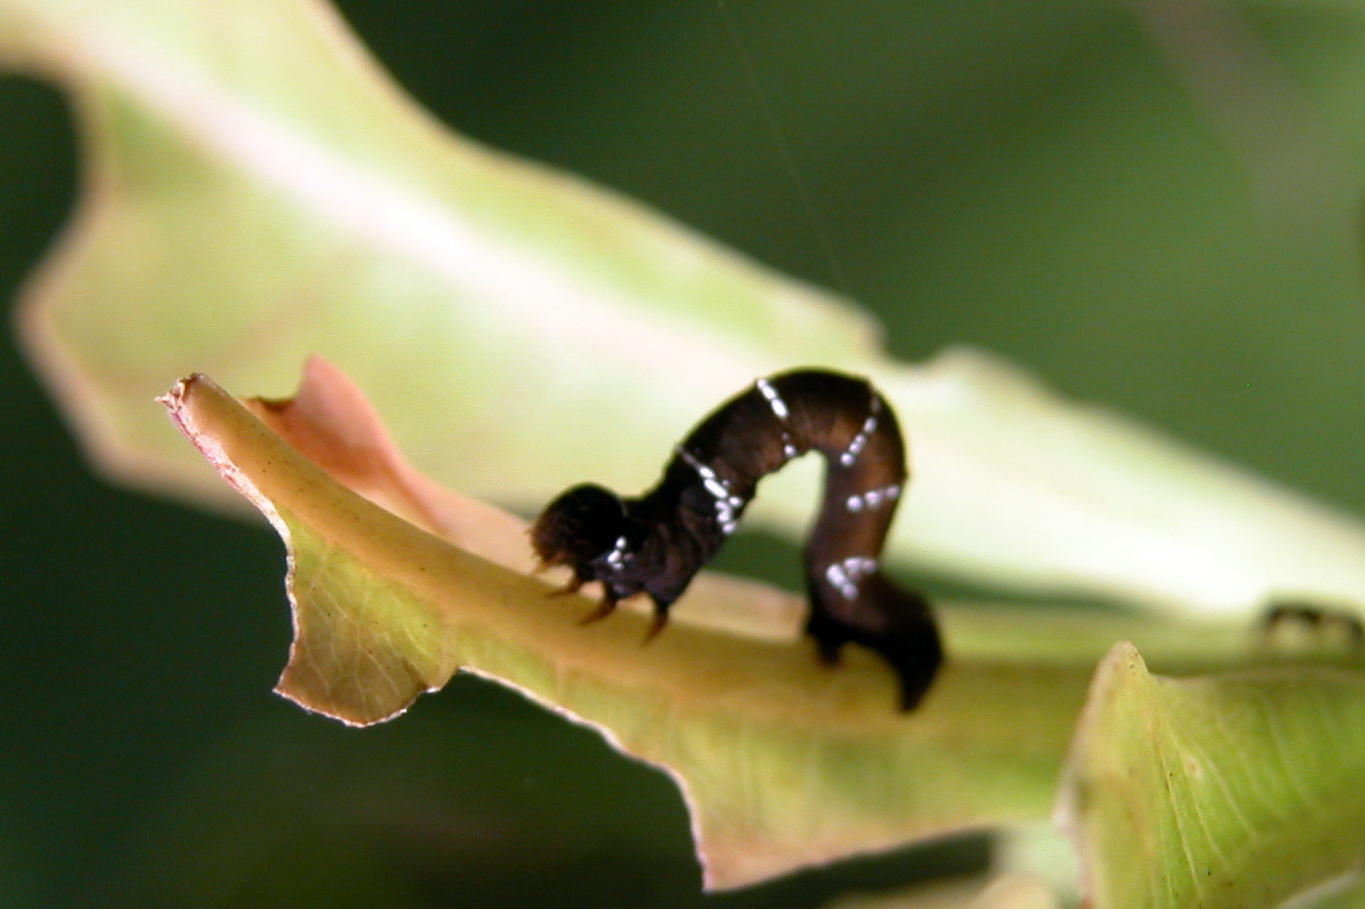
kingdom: Animalia
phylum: Arthropoda
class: Insecta
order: Lepidoptera
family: Geometridae
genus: Hyposidra
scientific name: Hyposidra talaca
